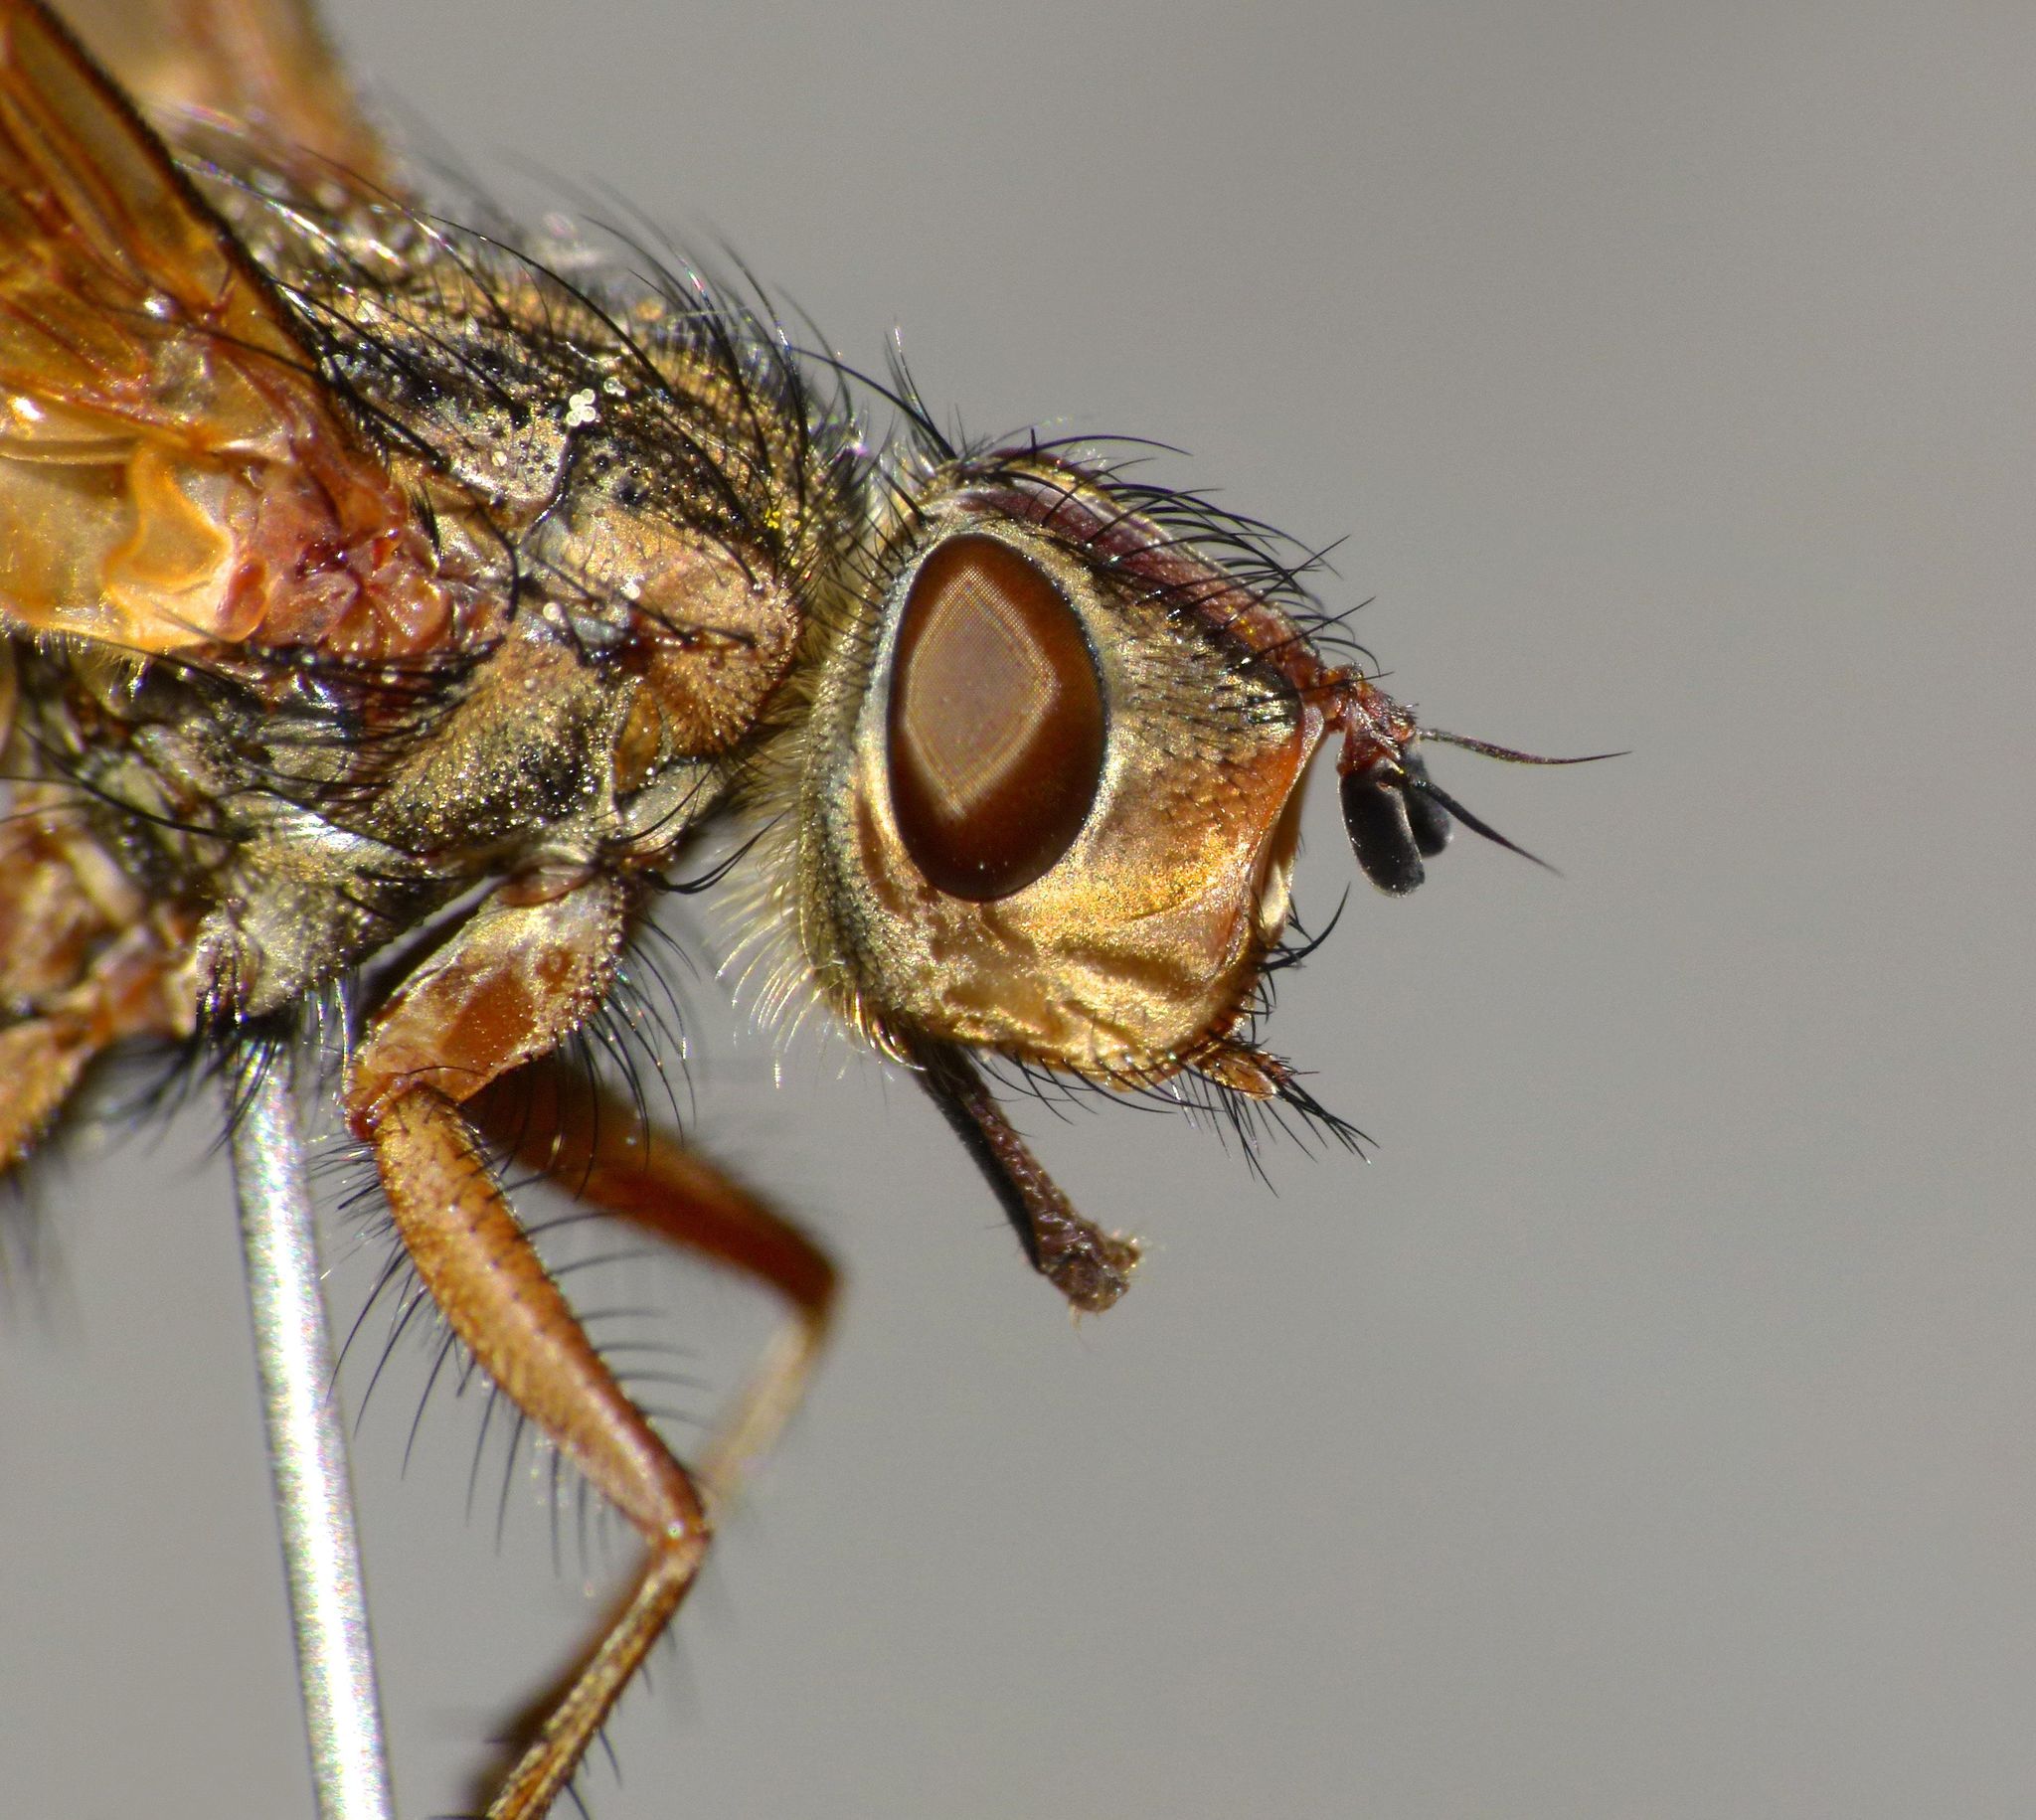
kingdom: Animalia
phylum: Arthropoda
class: Insecta
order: Diptera
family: Tachinidae
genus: Peremptor
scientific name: Peremptor kumaraensis
